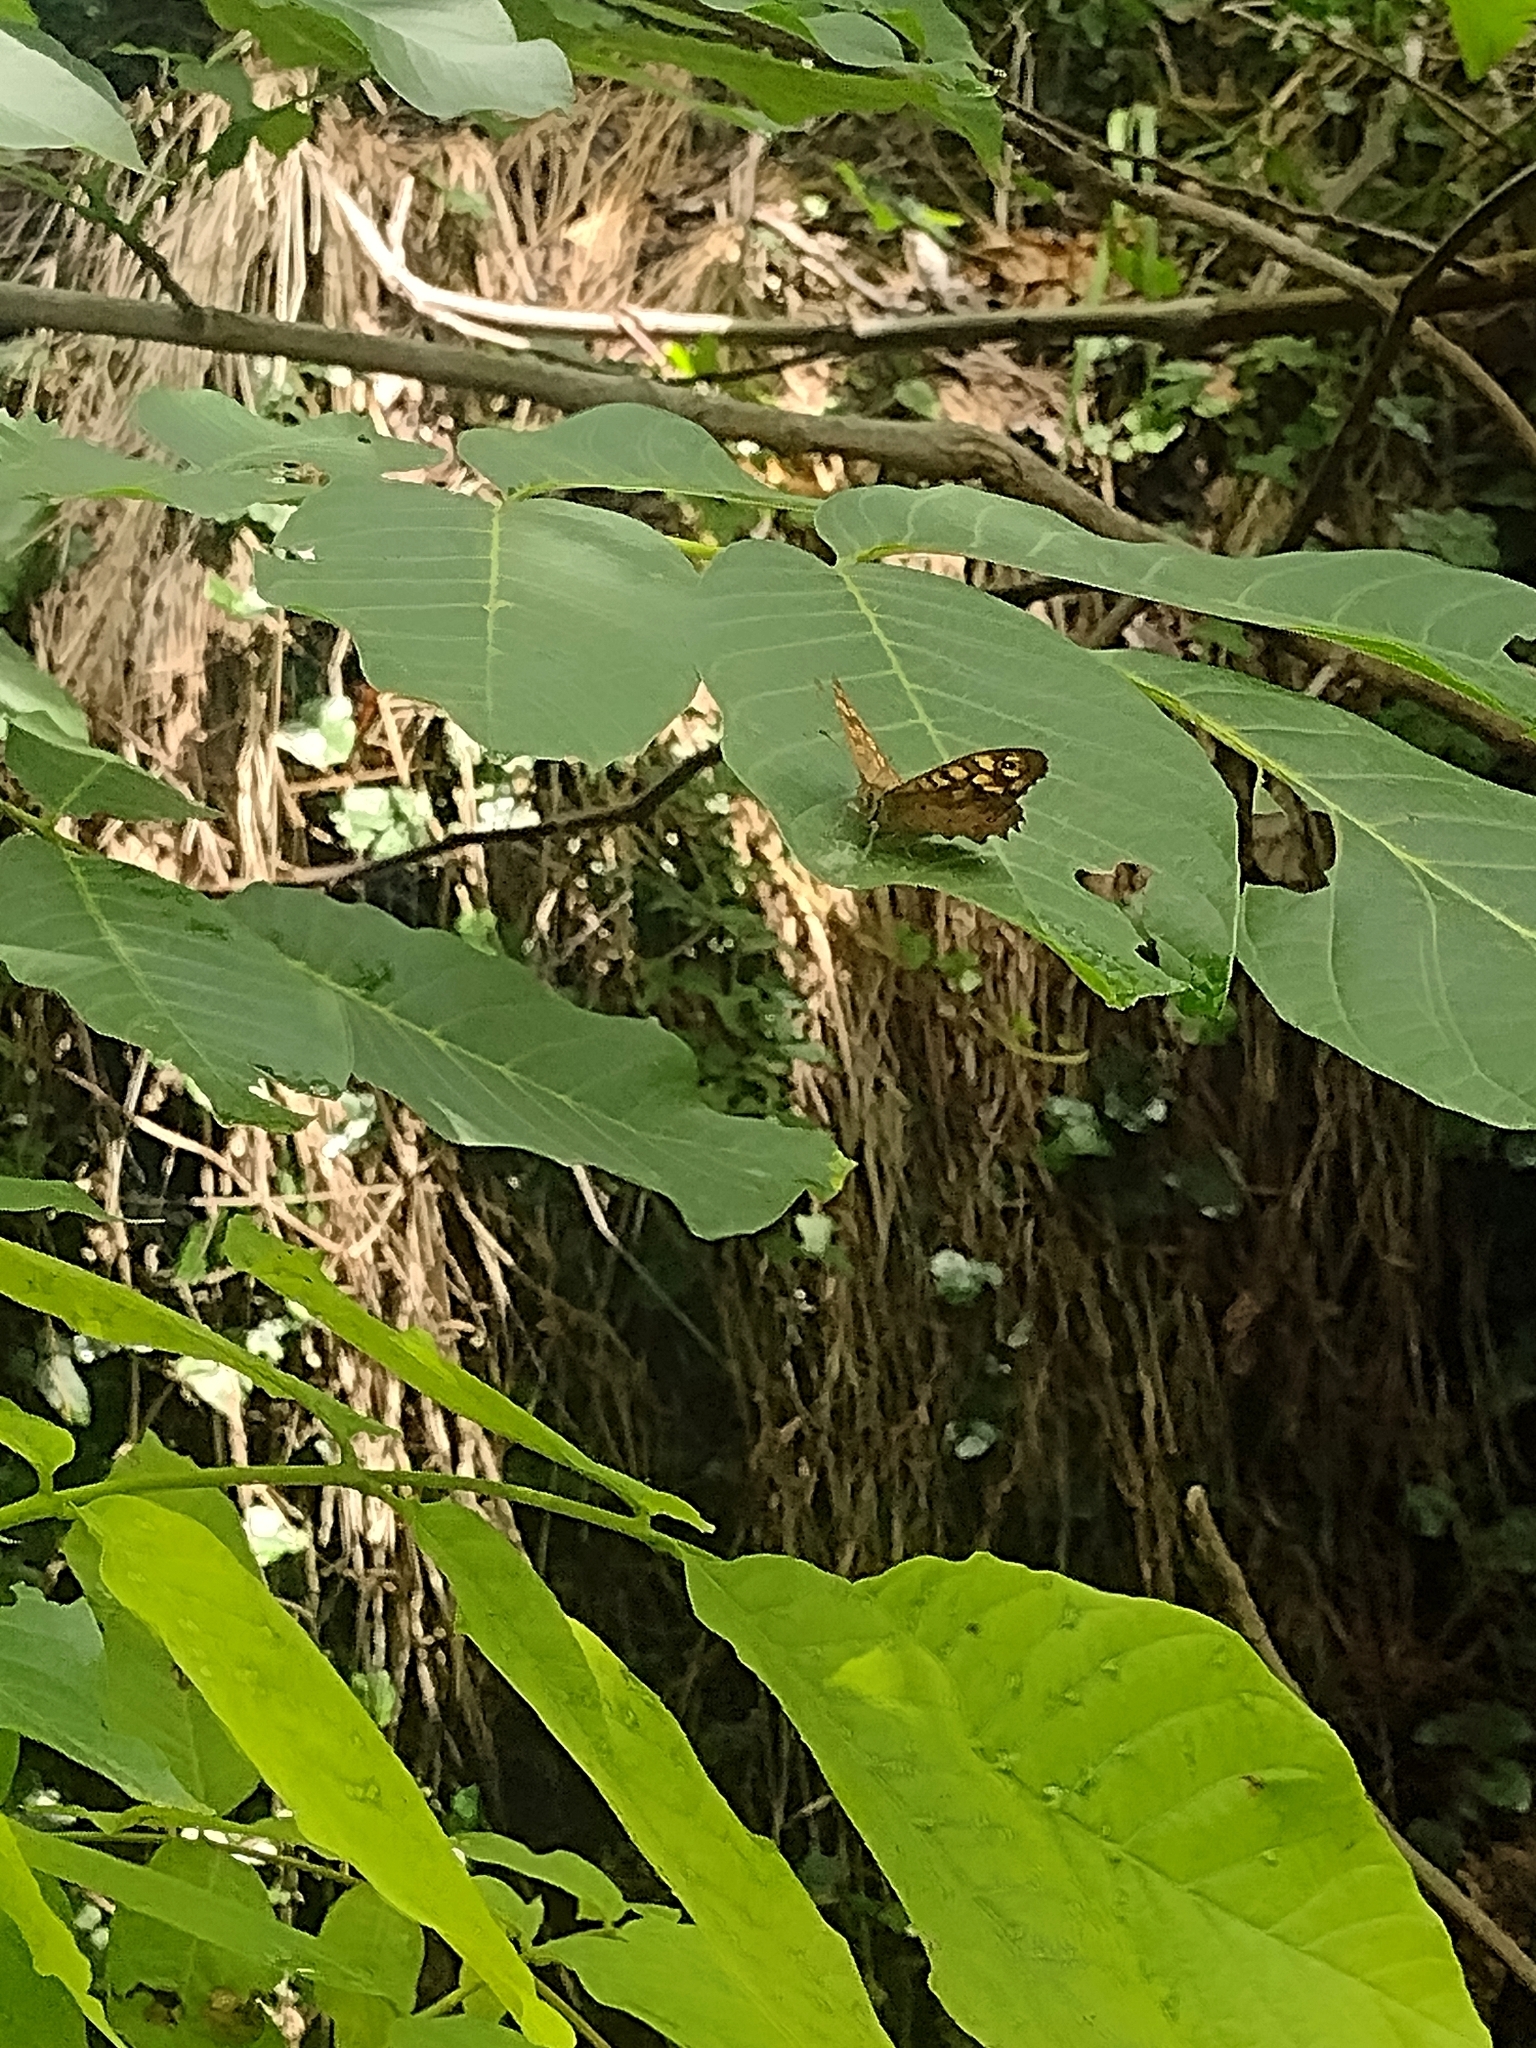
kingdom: Animalia
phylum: Arthropoda
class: Insecta
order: Lepidoptera
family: Nymphalidae
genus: Pararge
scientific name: Pararge aegeria
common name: Speckled wood
